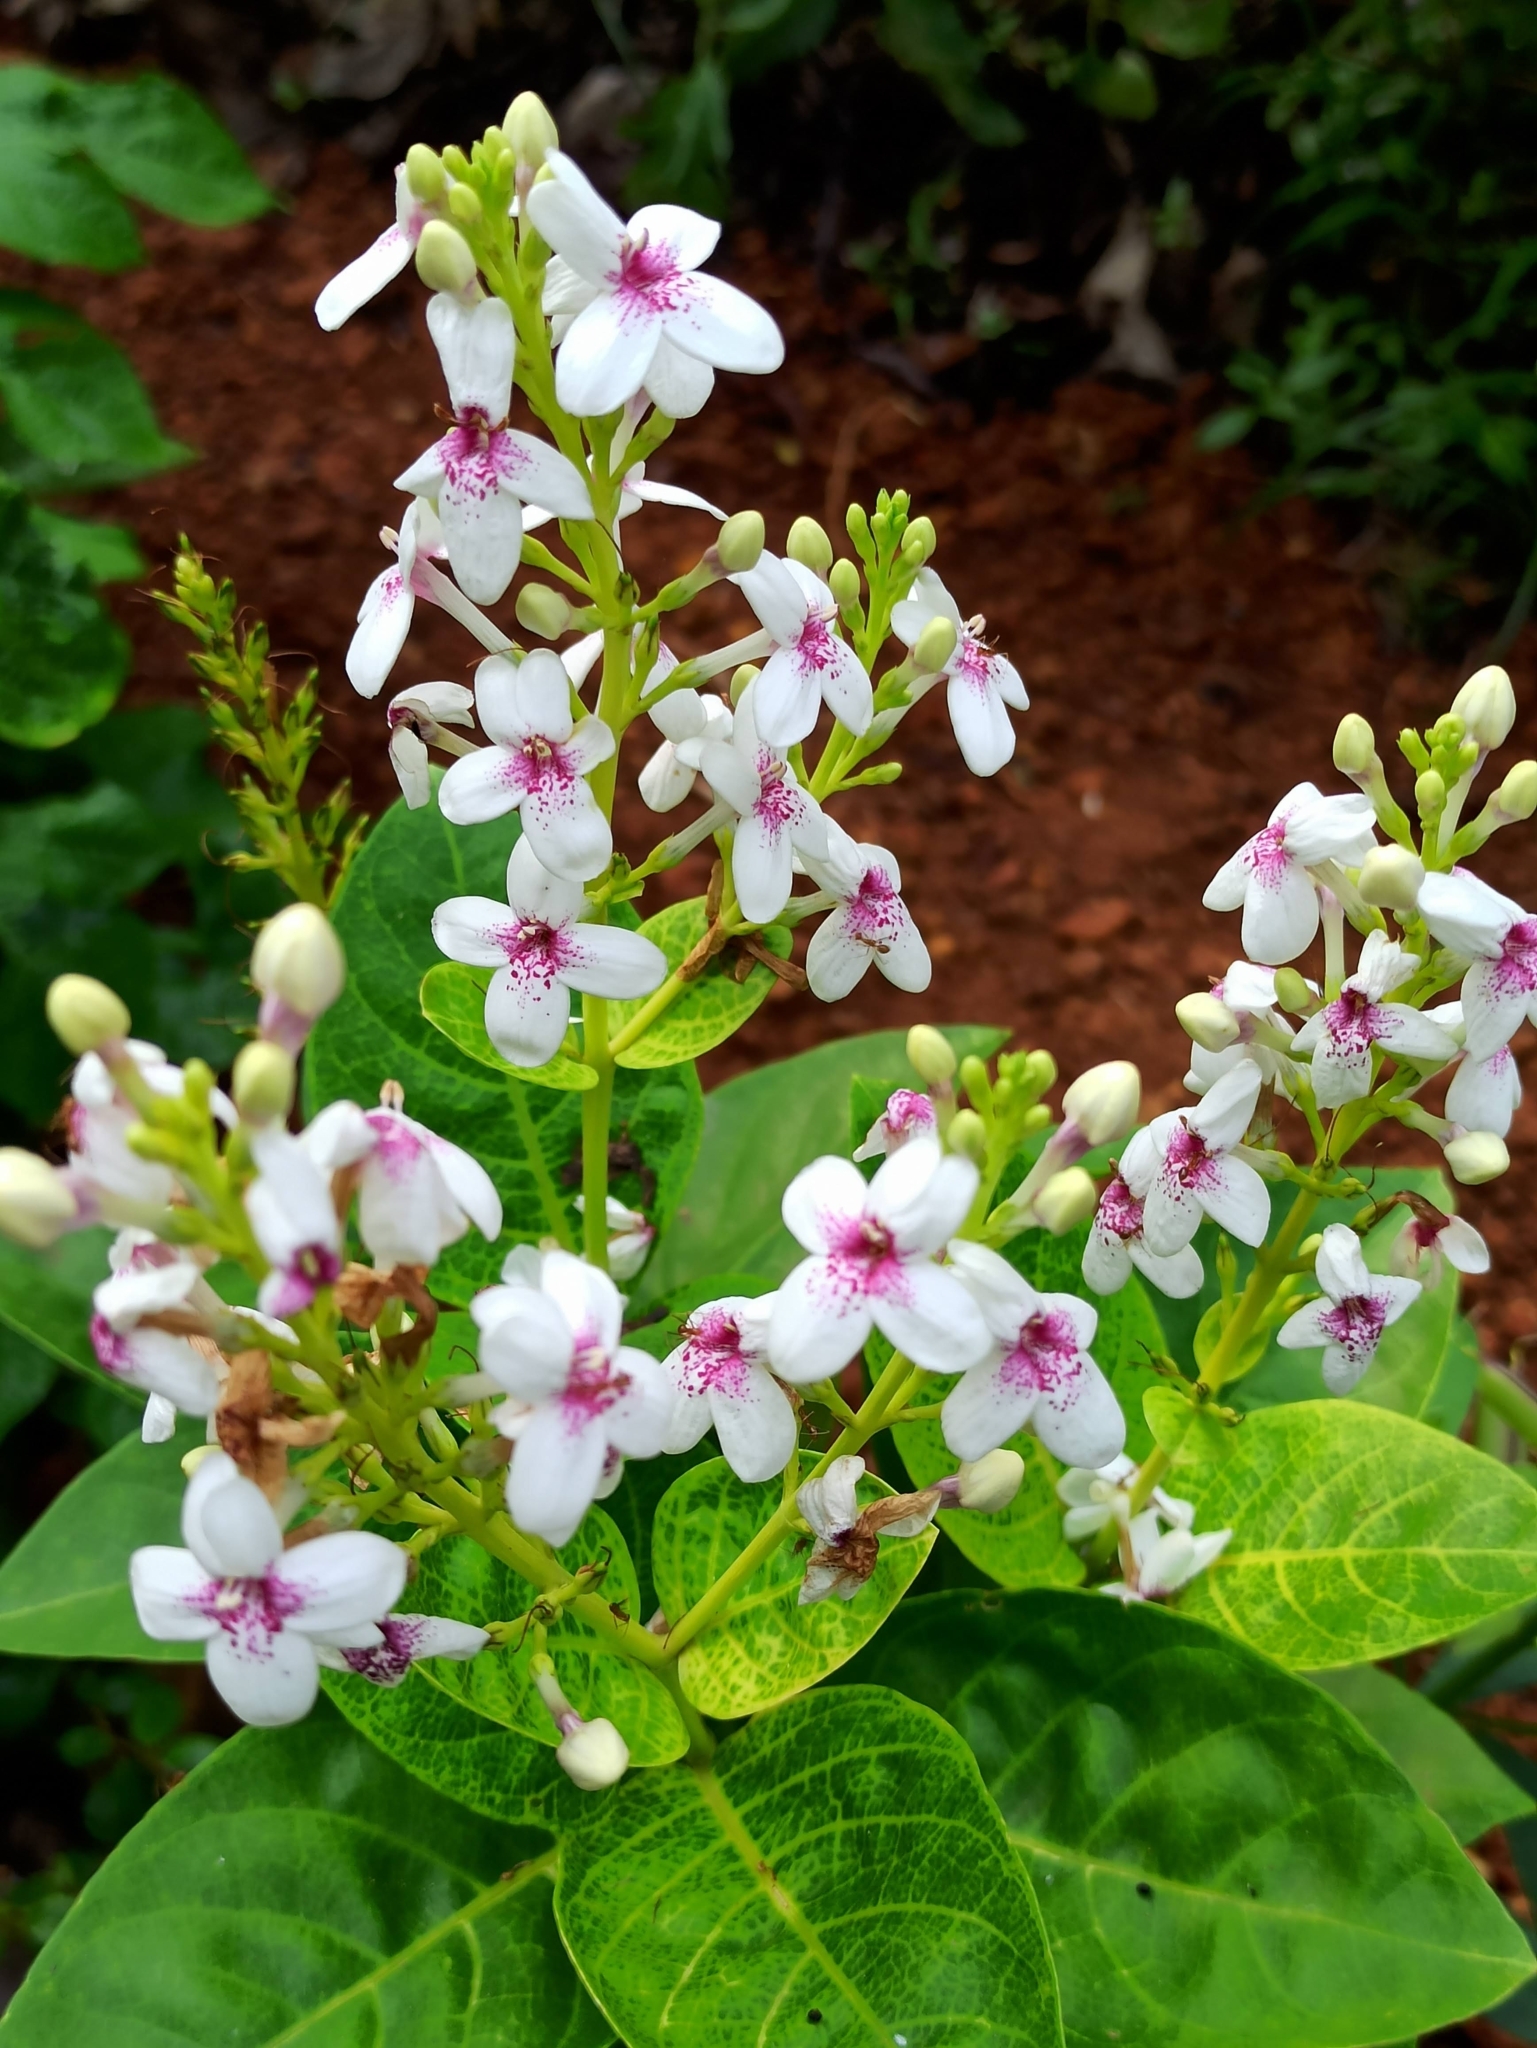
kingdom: Plantae
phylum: Tracheophyta
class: Magnoliopsida
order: Lamiales
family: Acanthaceae
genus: Pseuderanthemum
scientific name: Pseuderanthemum maculatum
